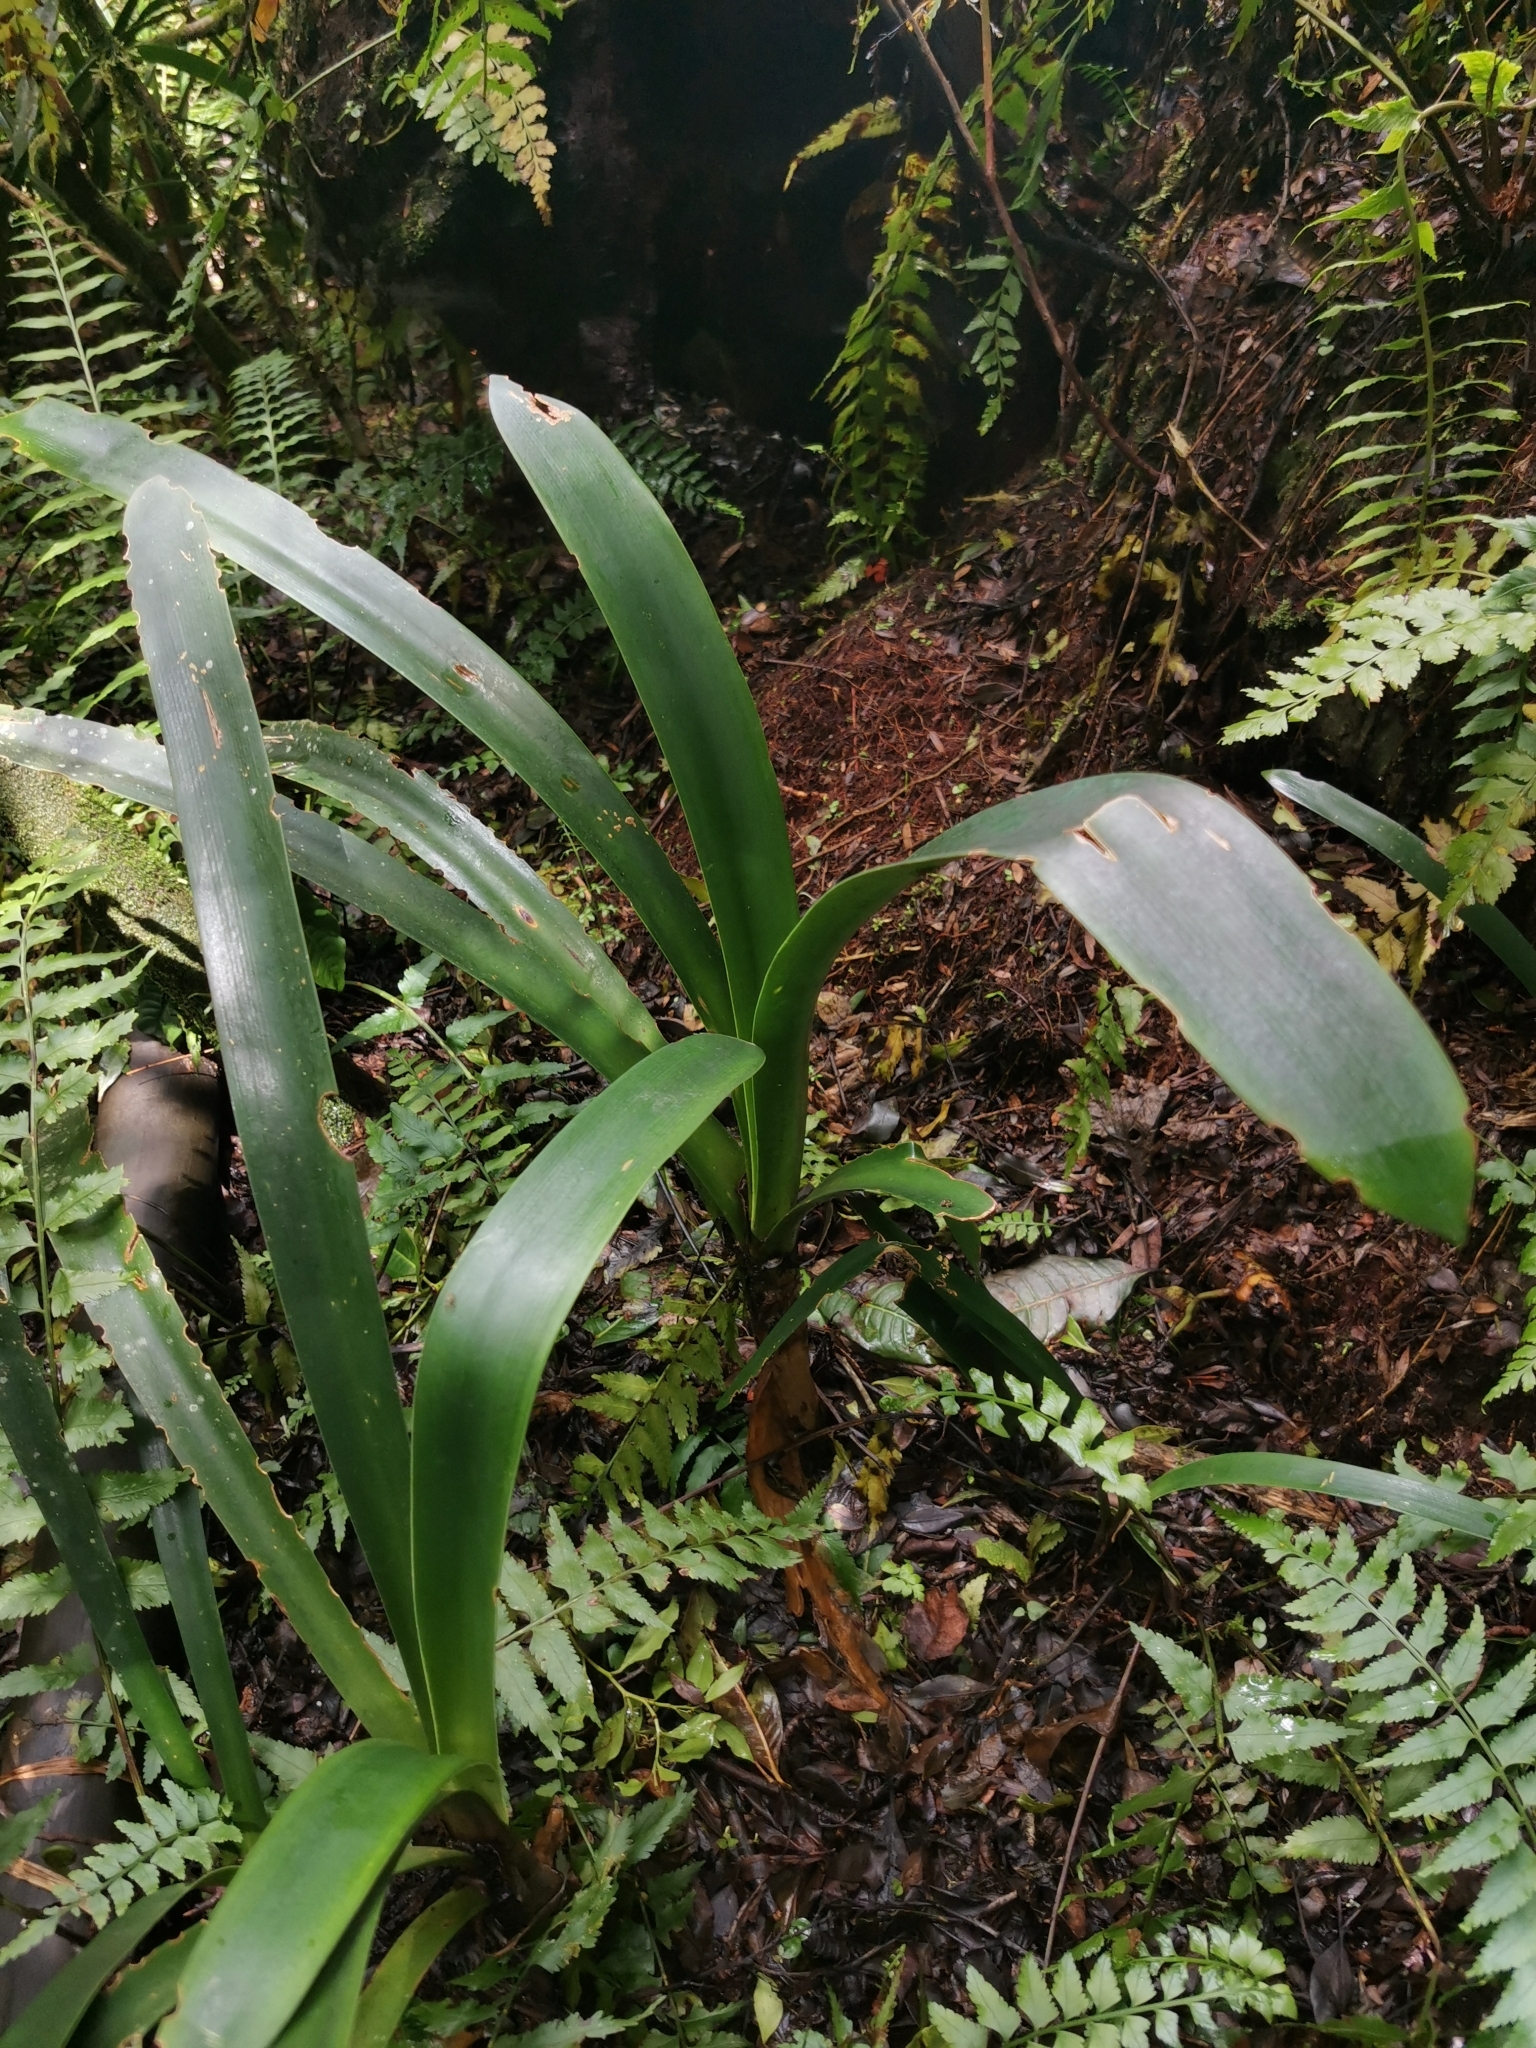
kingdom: Plantae
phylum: Tracheophyta
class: Liliopsida
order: Asparagales
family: Amaryllidaceae
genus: Clivia
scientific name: Clivia caulescens
